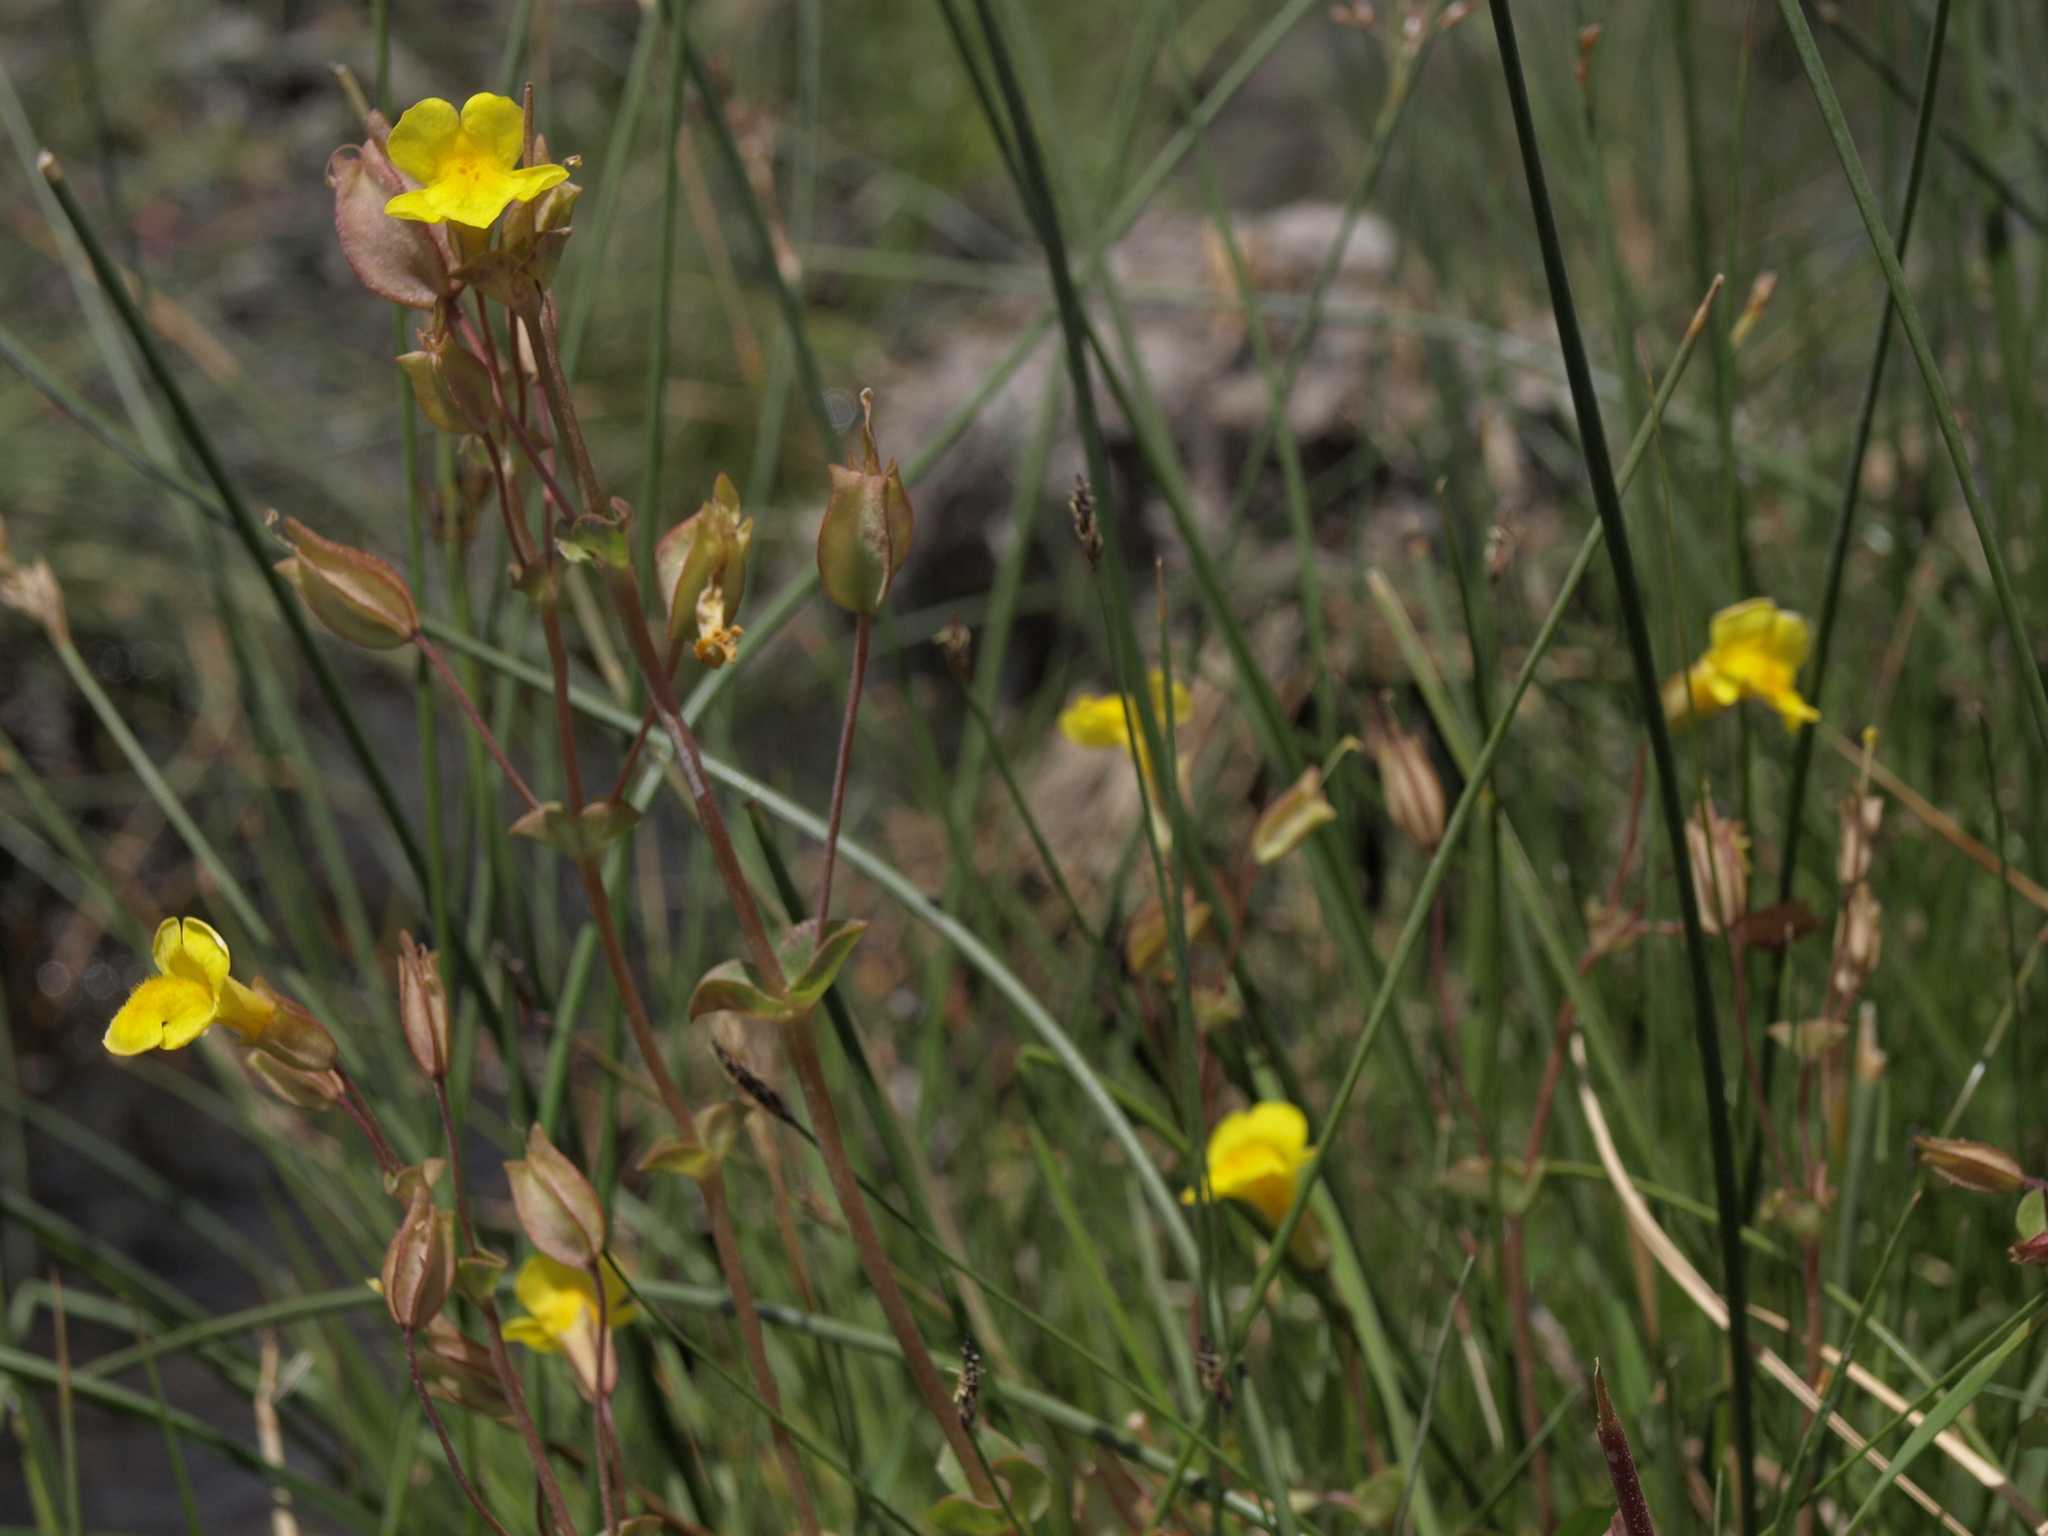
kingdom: Plantae
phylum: Tracheophyta
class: Magnoliopsida
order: Lamiales
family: Phrymaceae
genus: Erythranthe
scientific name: Erythranthe utahensis
